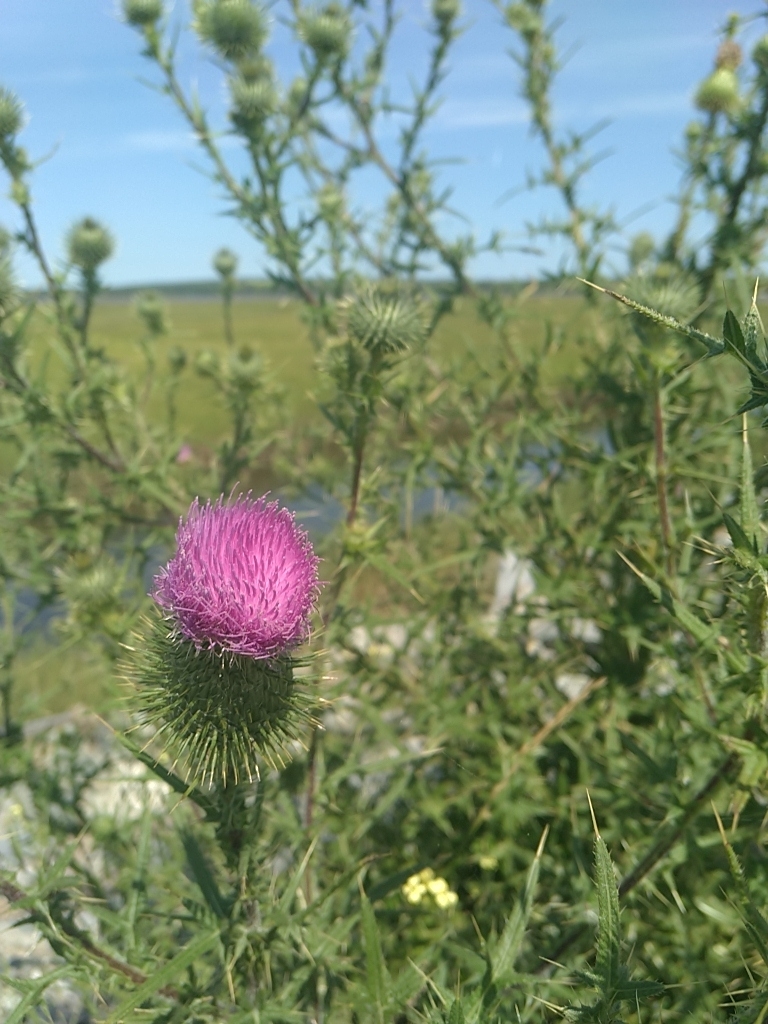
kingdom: Plantae
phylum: Tracheophyta
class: Magnoliopsida
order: Asterales
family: Asteraceae
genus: Cirsium
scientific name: Cirsium vulgare
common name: Bull thistle
